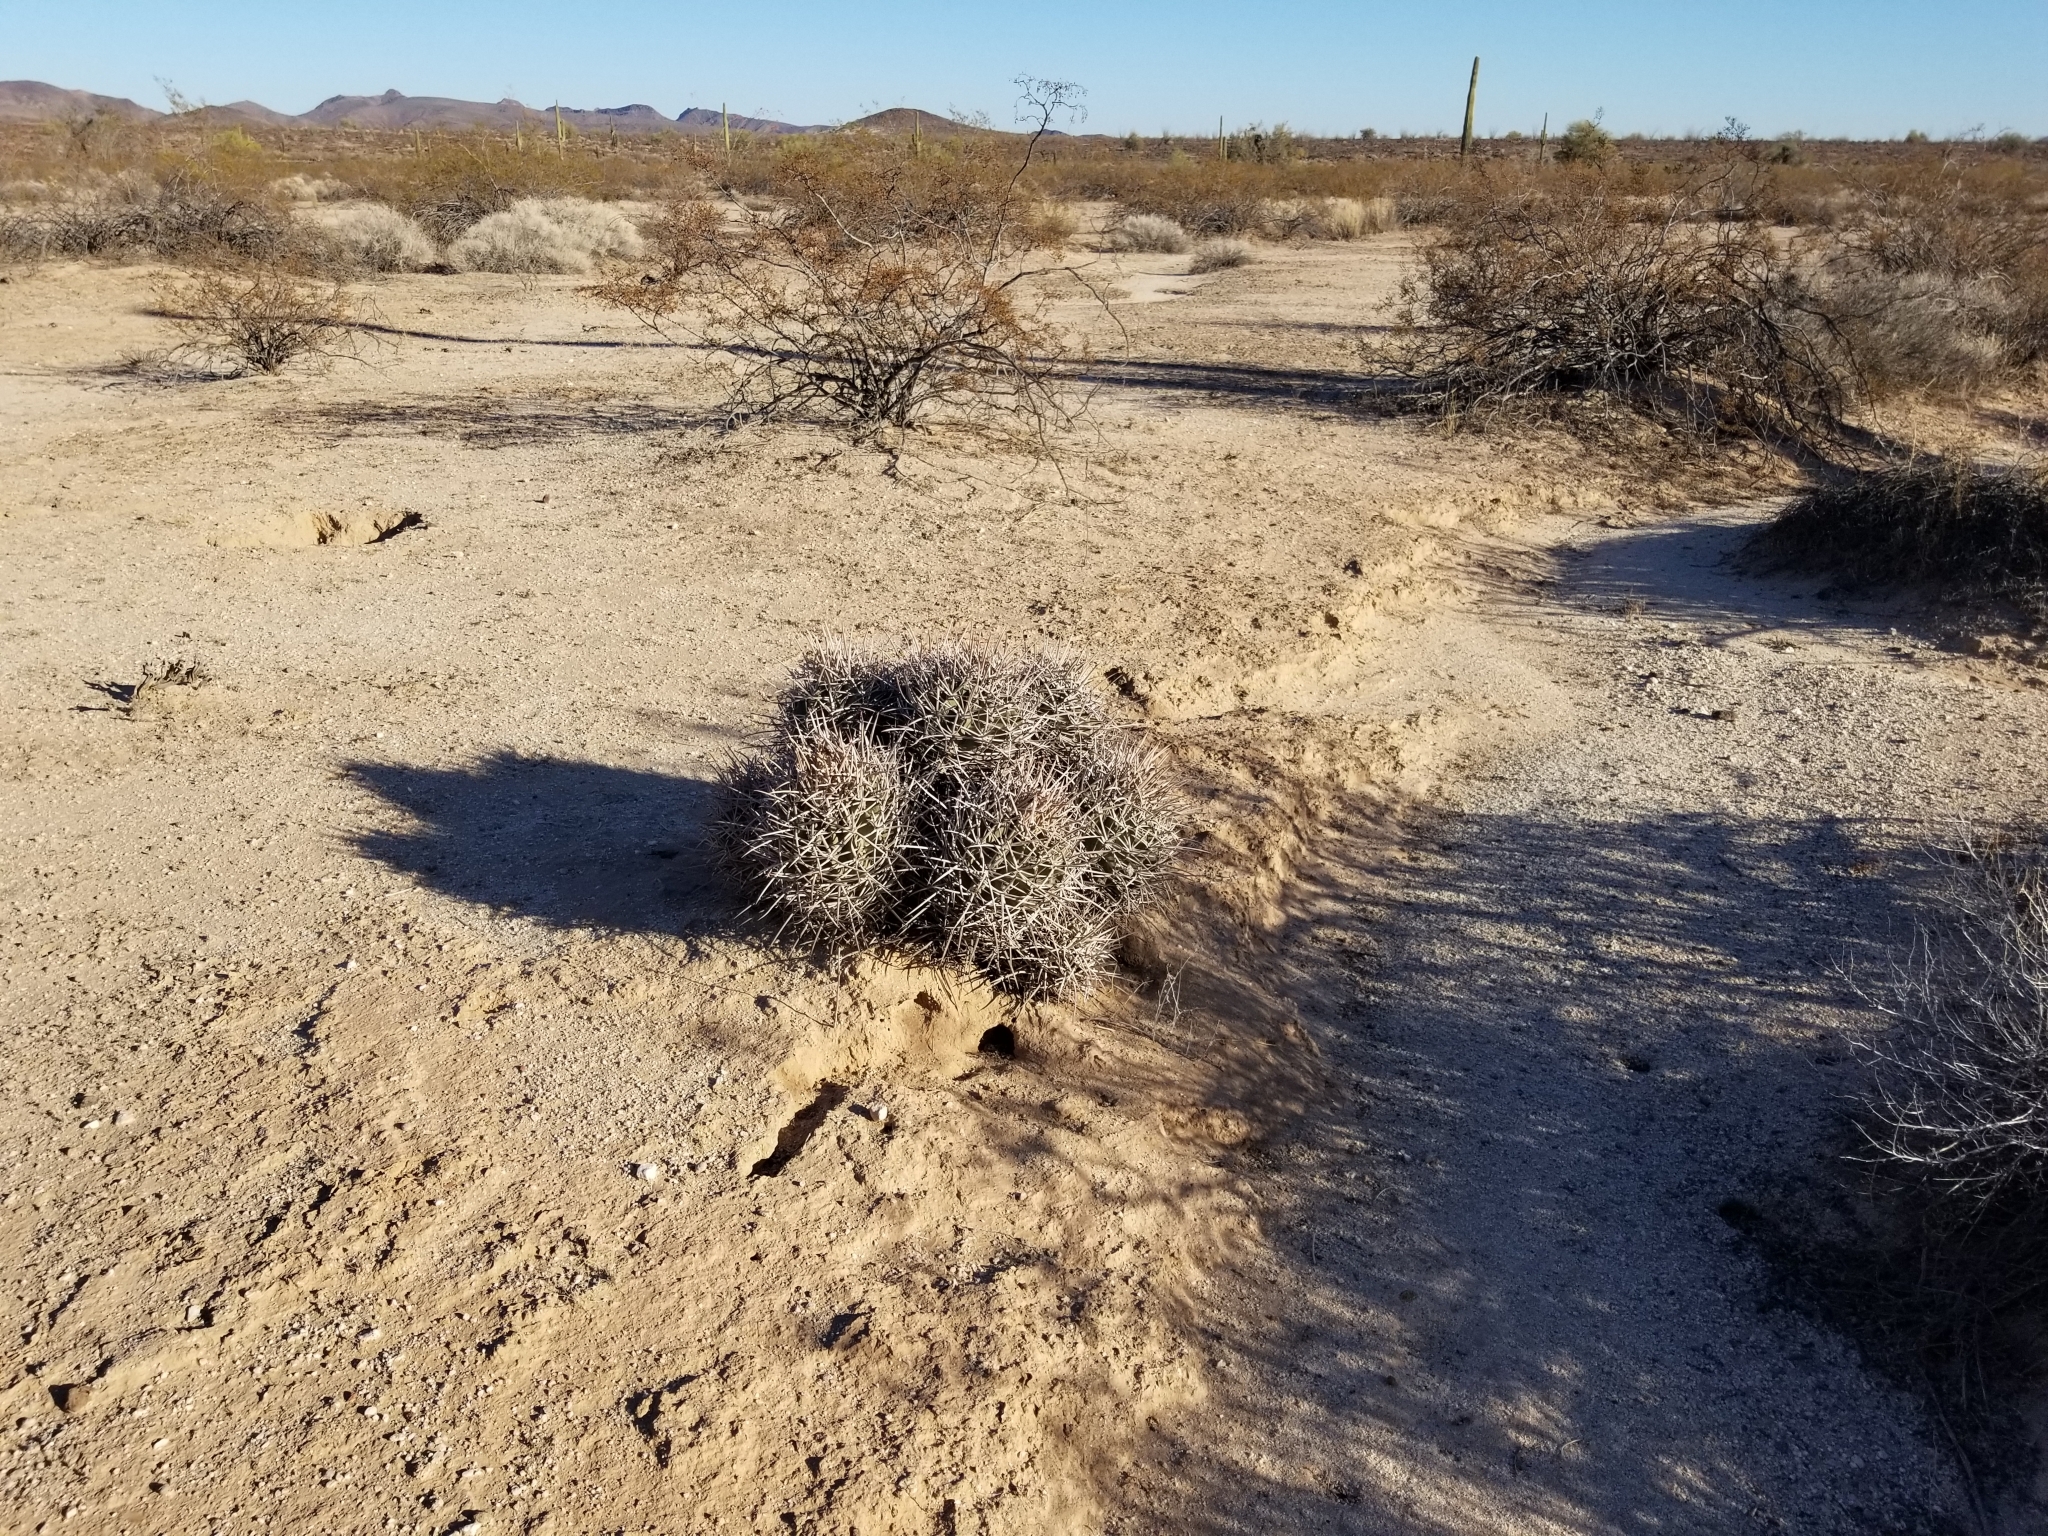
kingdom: Plantae
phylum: Tracheophyta
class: Magnoliopsida
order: Caryophyllales
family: Cactaceae
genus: Echinocactus
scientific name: Echinocactus polycephalus
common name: Cottontop cactus
